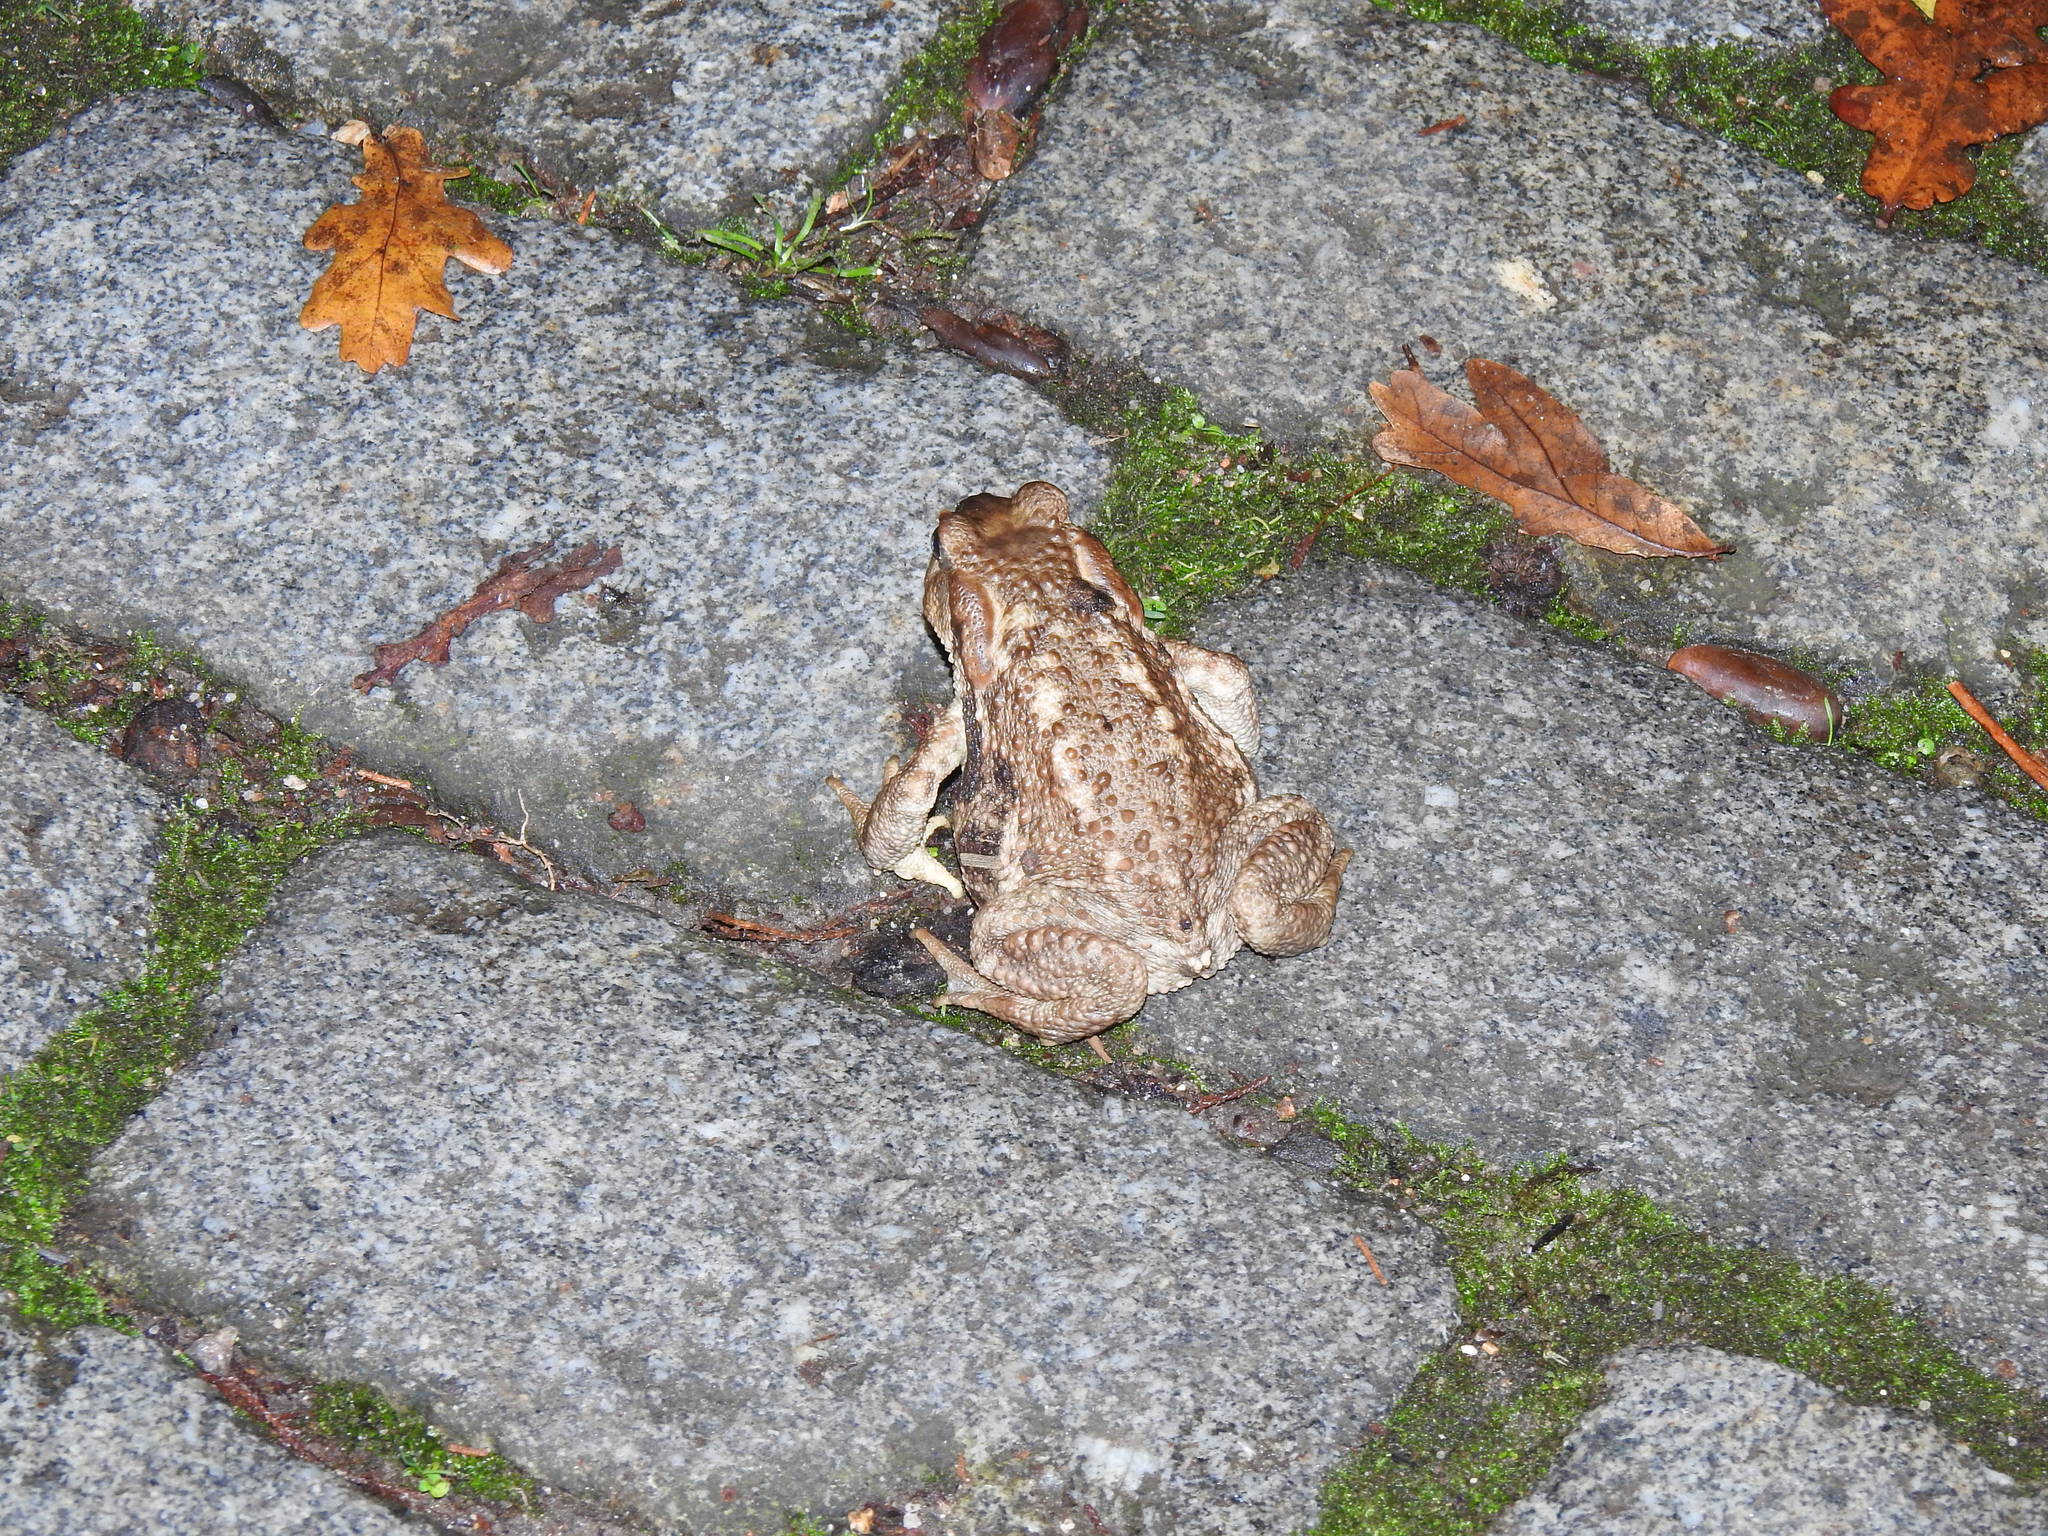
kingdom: Animalia
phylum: Chordata
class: Amphibia
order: Anura
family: Bufonidae
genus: Bufo
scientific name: Bufo spinosus
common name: Western common toad
